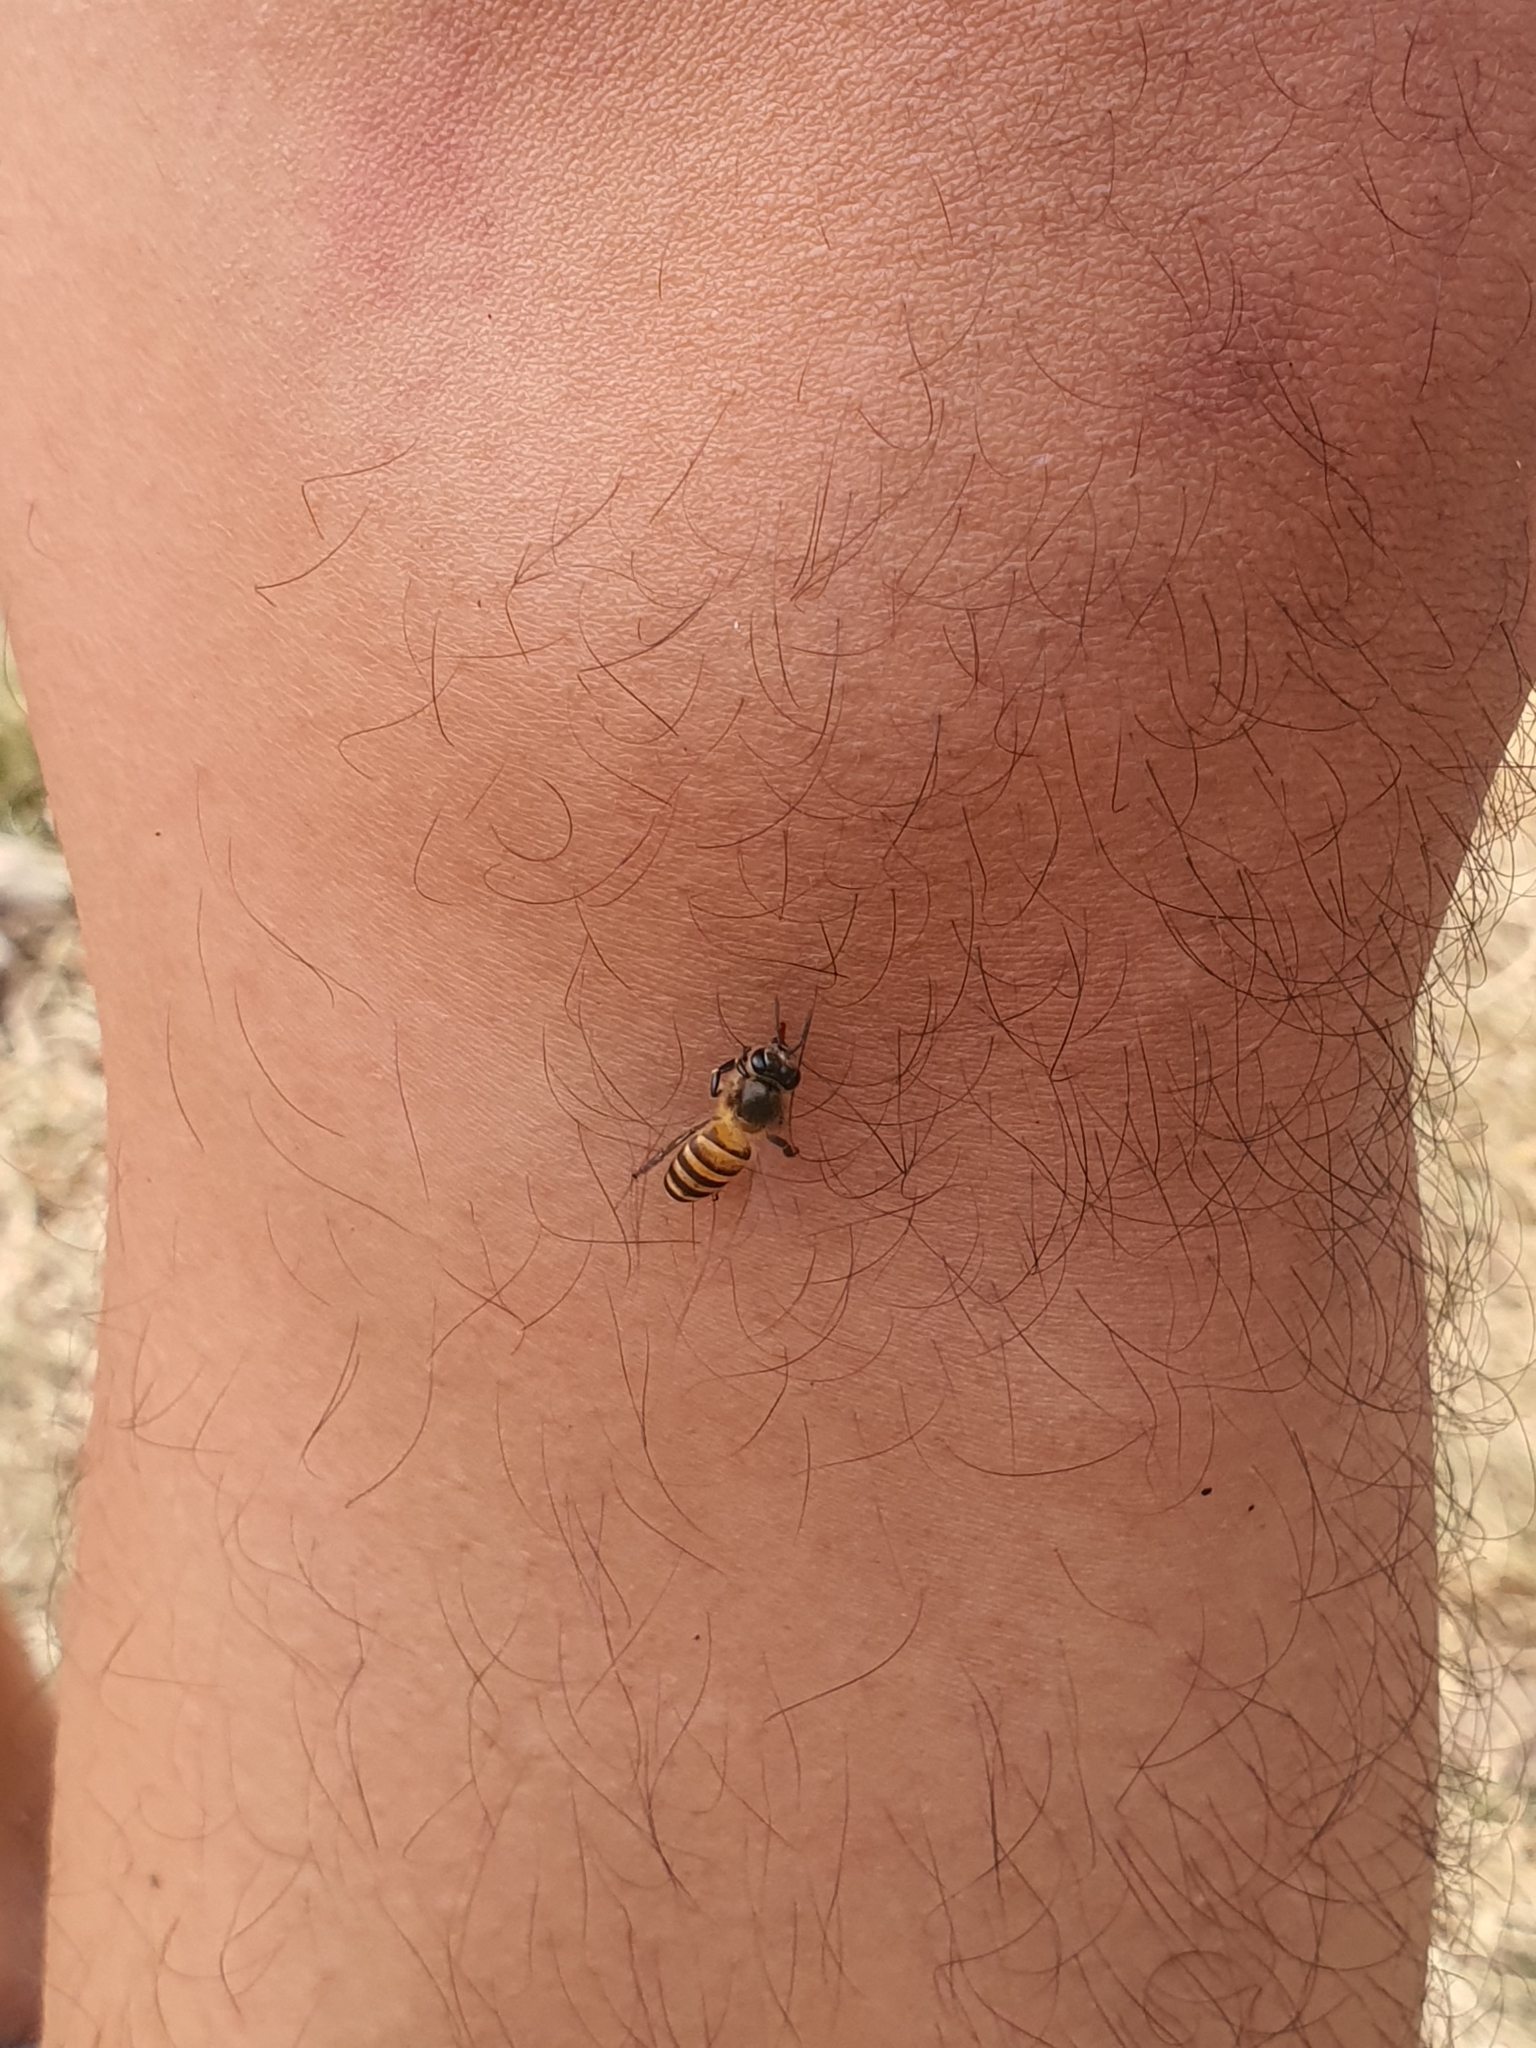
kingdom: Animalia
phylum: Arthropoda
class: Insecta
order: Hymenoptera
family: Apidae
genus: Apis
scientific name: Apis cerana
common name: Honey bee
